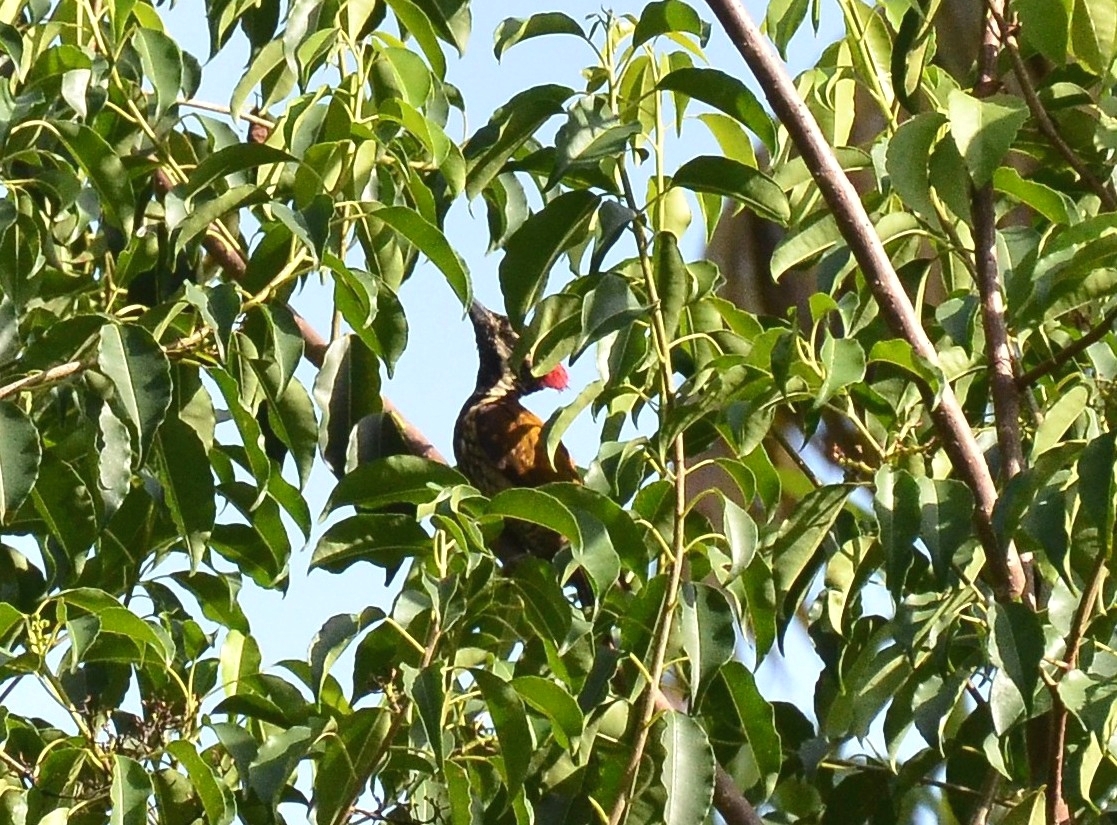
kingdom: Animalia
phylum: Chordata
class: Aves
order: Piciformes
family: Picidae
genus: Dinopium
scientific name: Dinopium benghalense
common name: Black-rumped flameback
